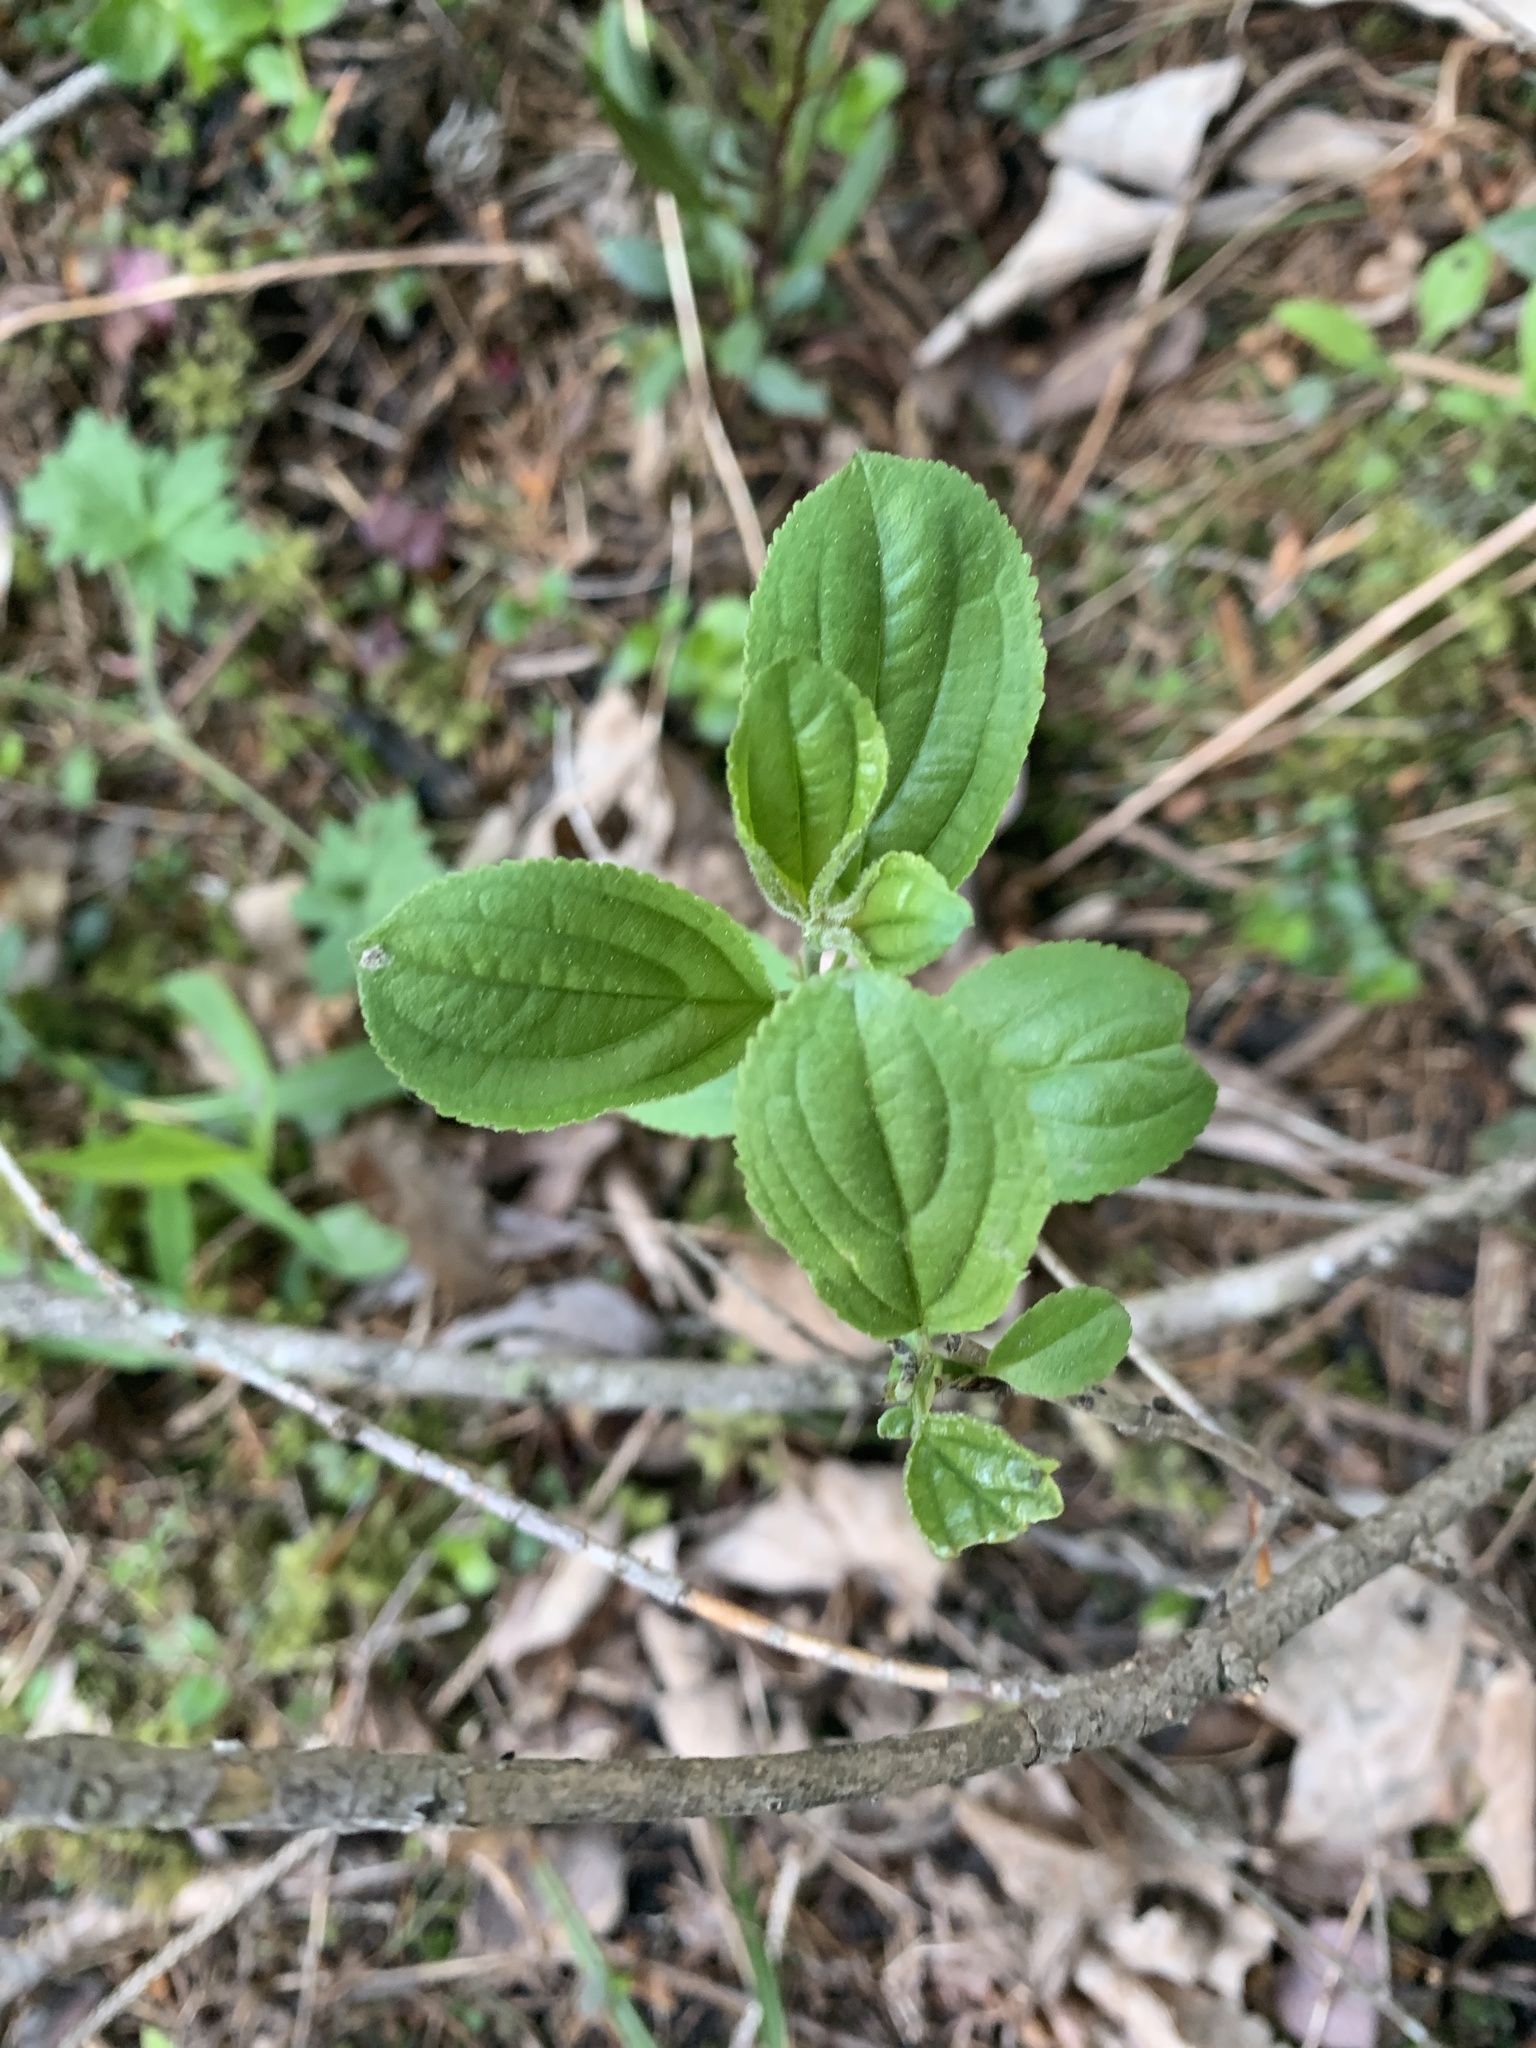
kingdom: Plantae
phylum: Tracheophyta
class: Magnoliopsida
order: Rosales
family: Rhamnaceae
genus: Rhamnus
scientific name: Rhamnus cathartica
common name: Common buckthorn
